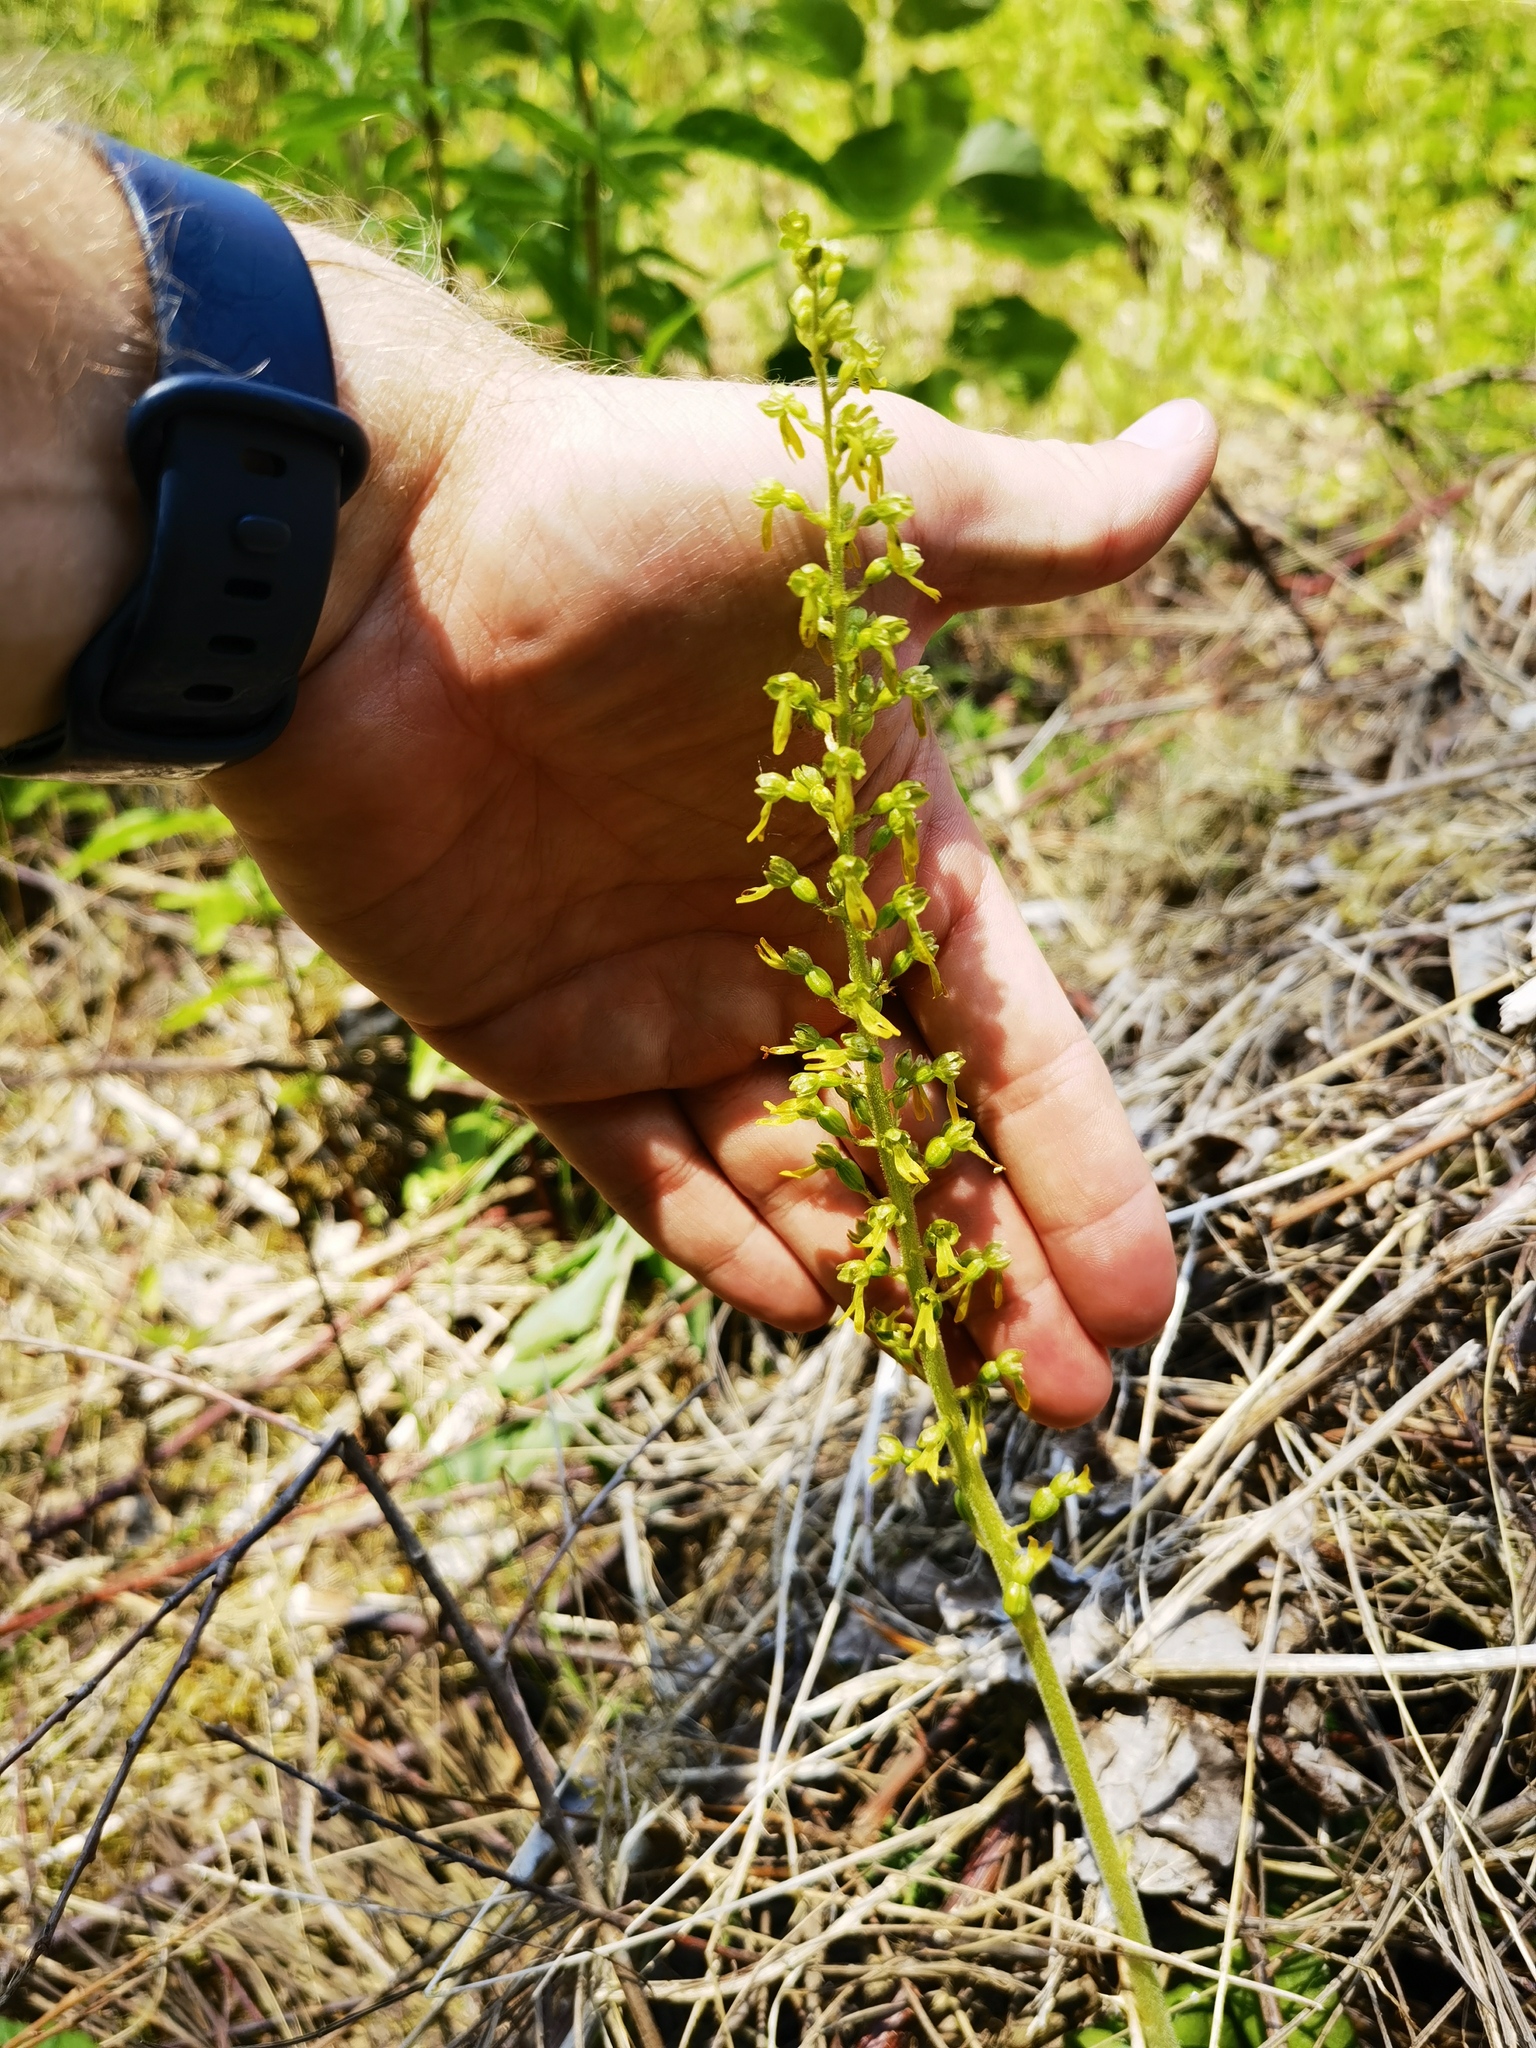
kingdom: Plantae
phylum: Tracheophyta
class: Liliopsida
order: Asparagales
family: Orchidaceae
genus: Neottia
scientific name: Neottia ovata
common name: Common twayblade
